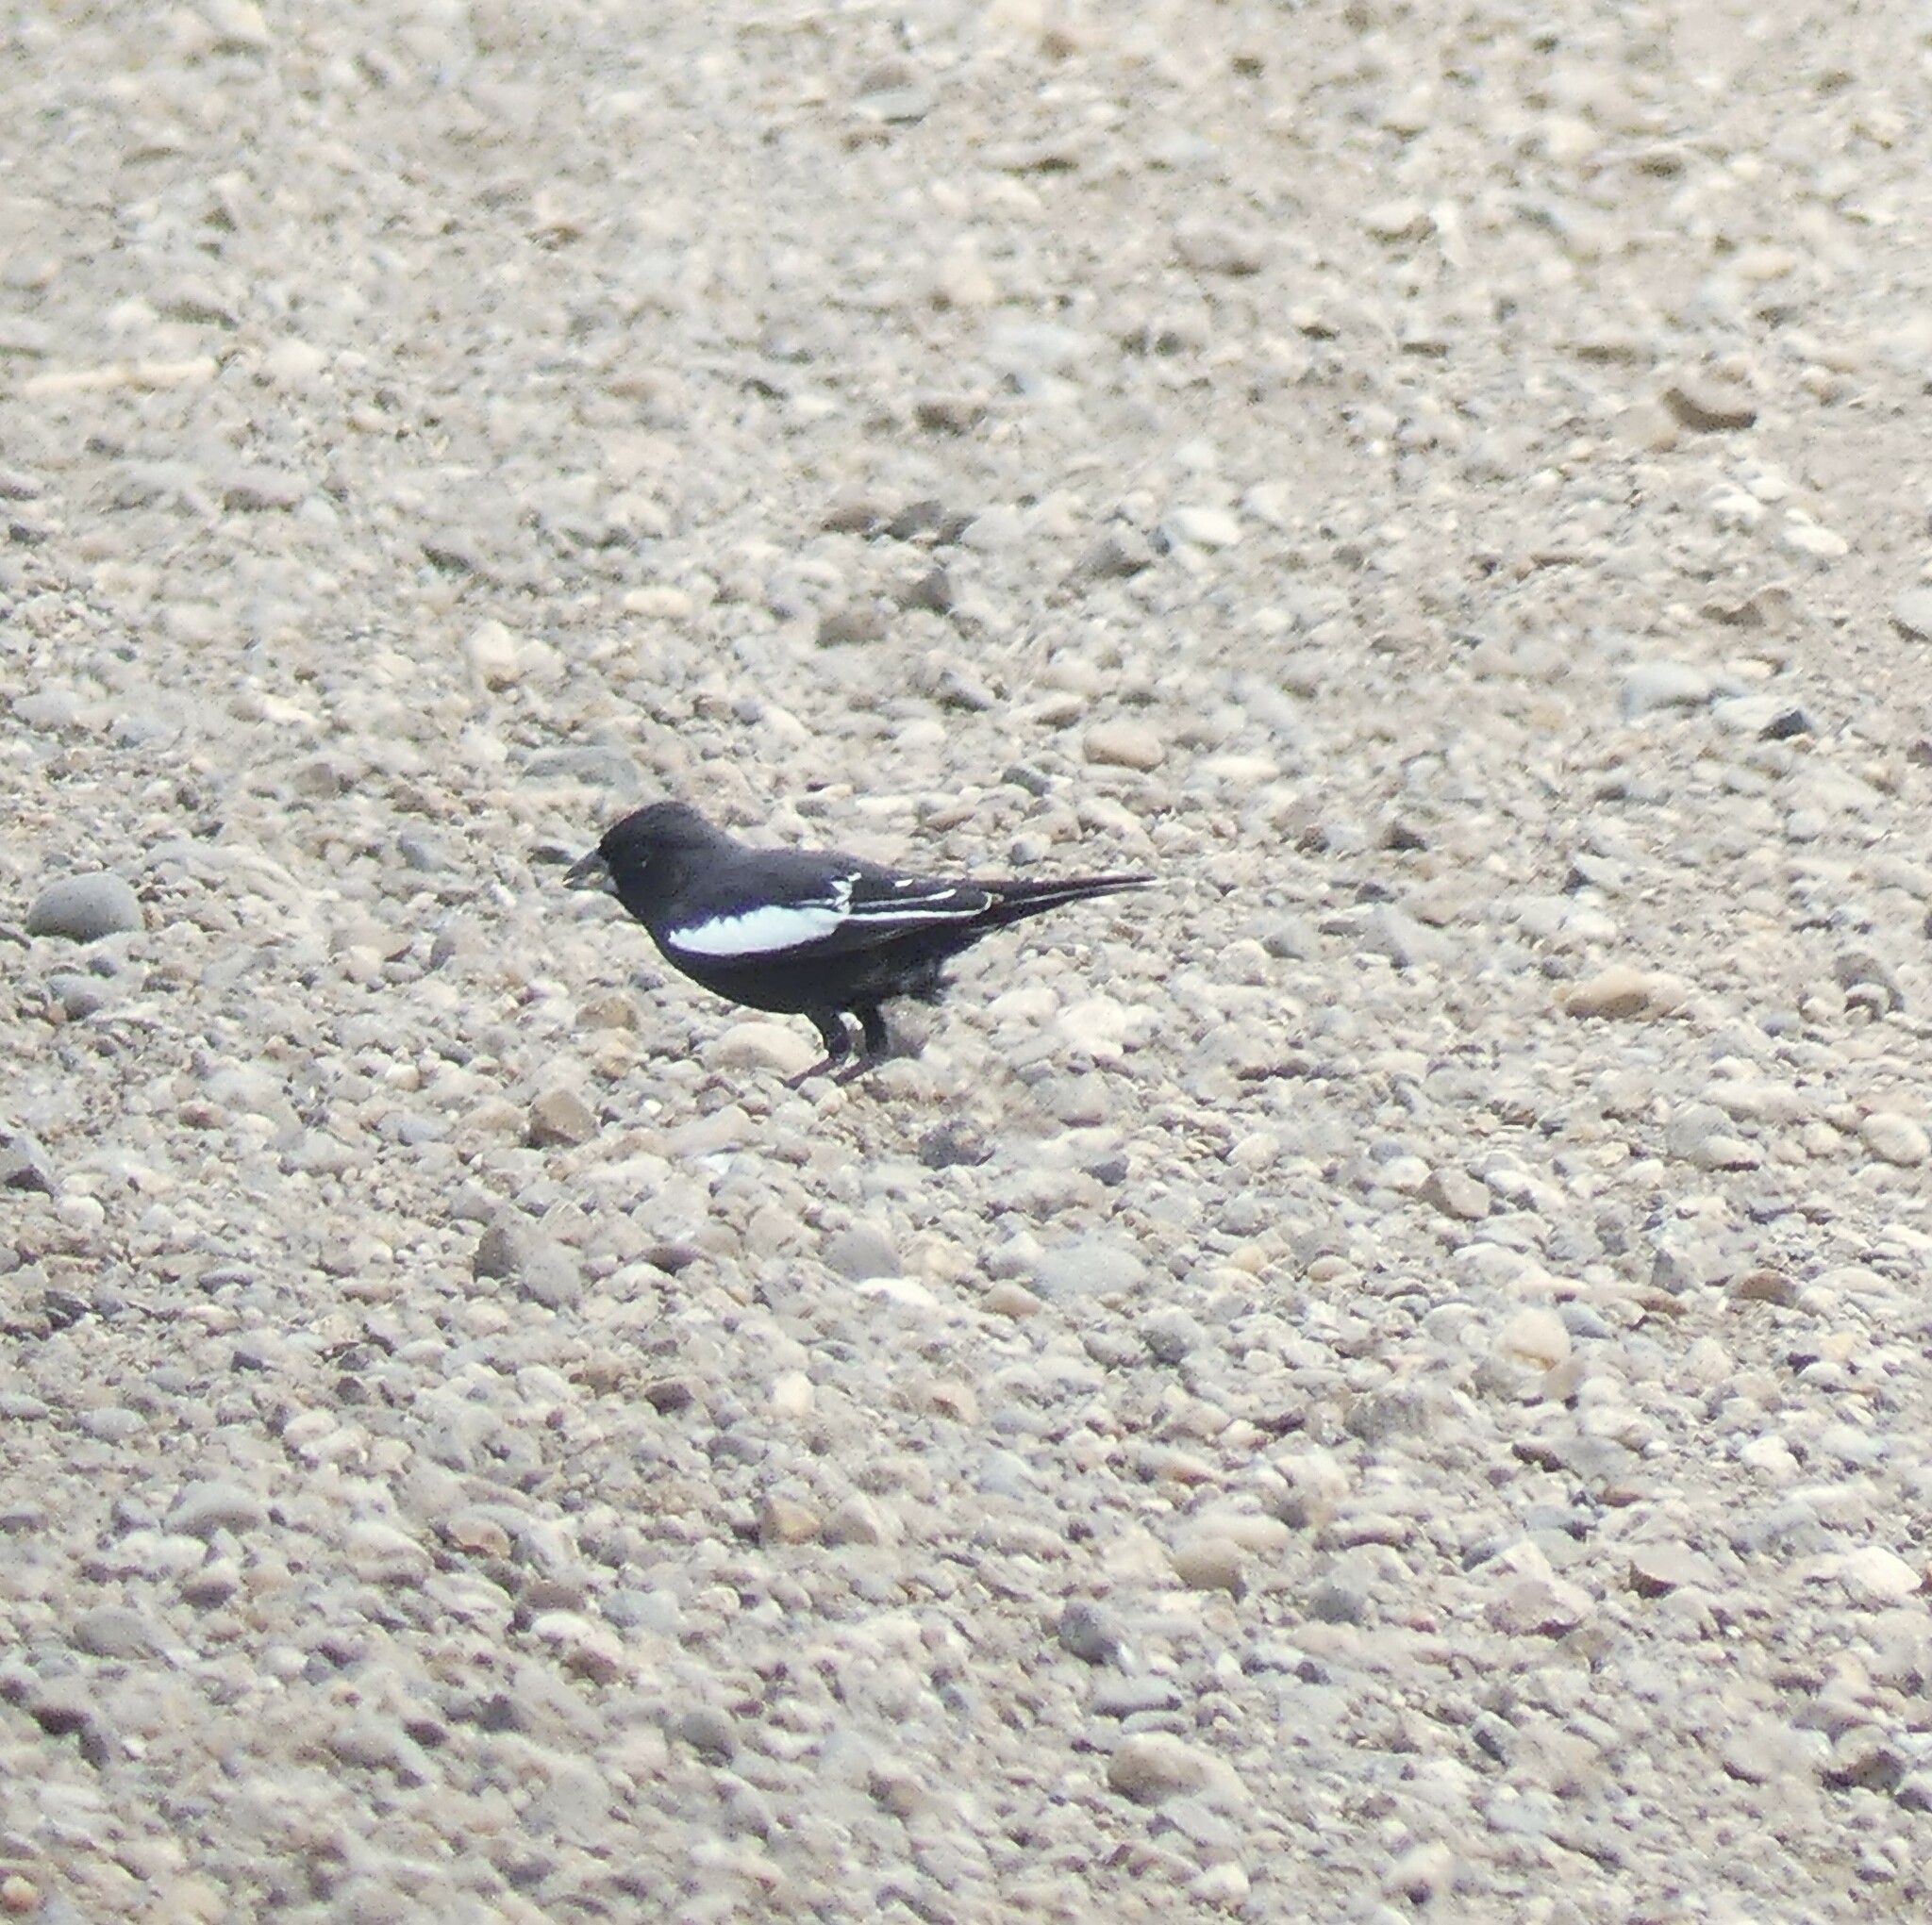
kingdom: Animalia
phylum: Chordata
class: Aves
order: Passeriformes
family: Passerellidae
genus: Calamospiza
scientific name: Calamospiza melanocorys
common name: Lark bunting
